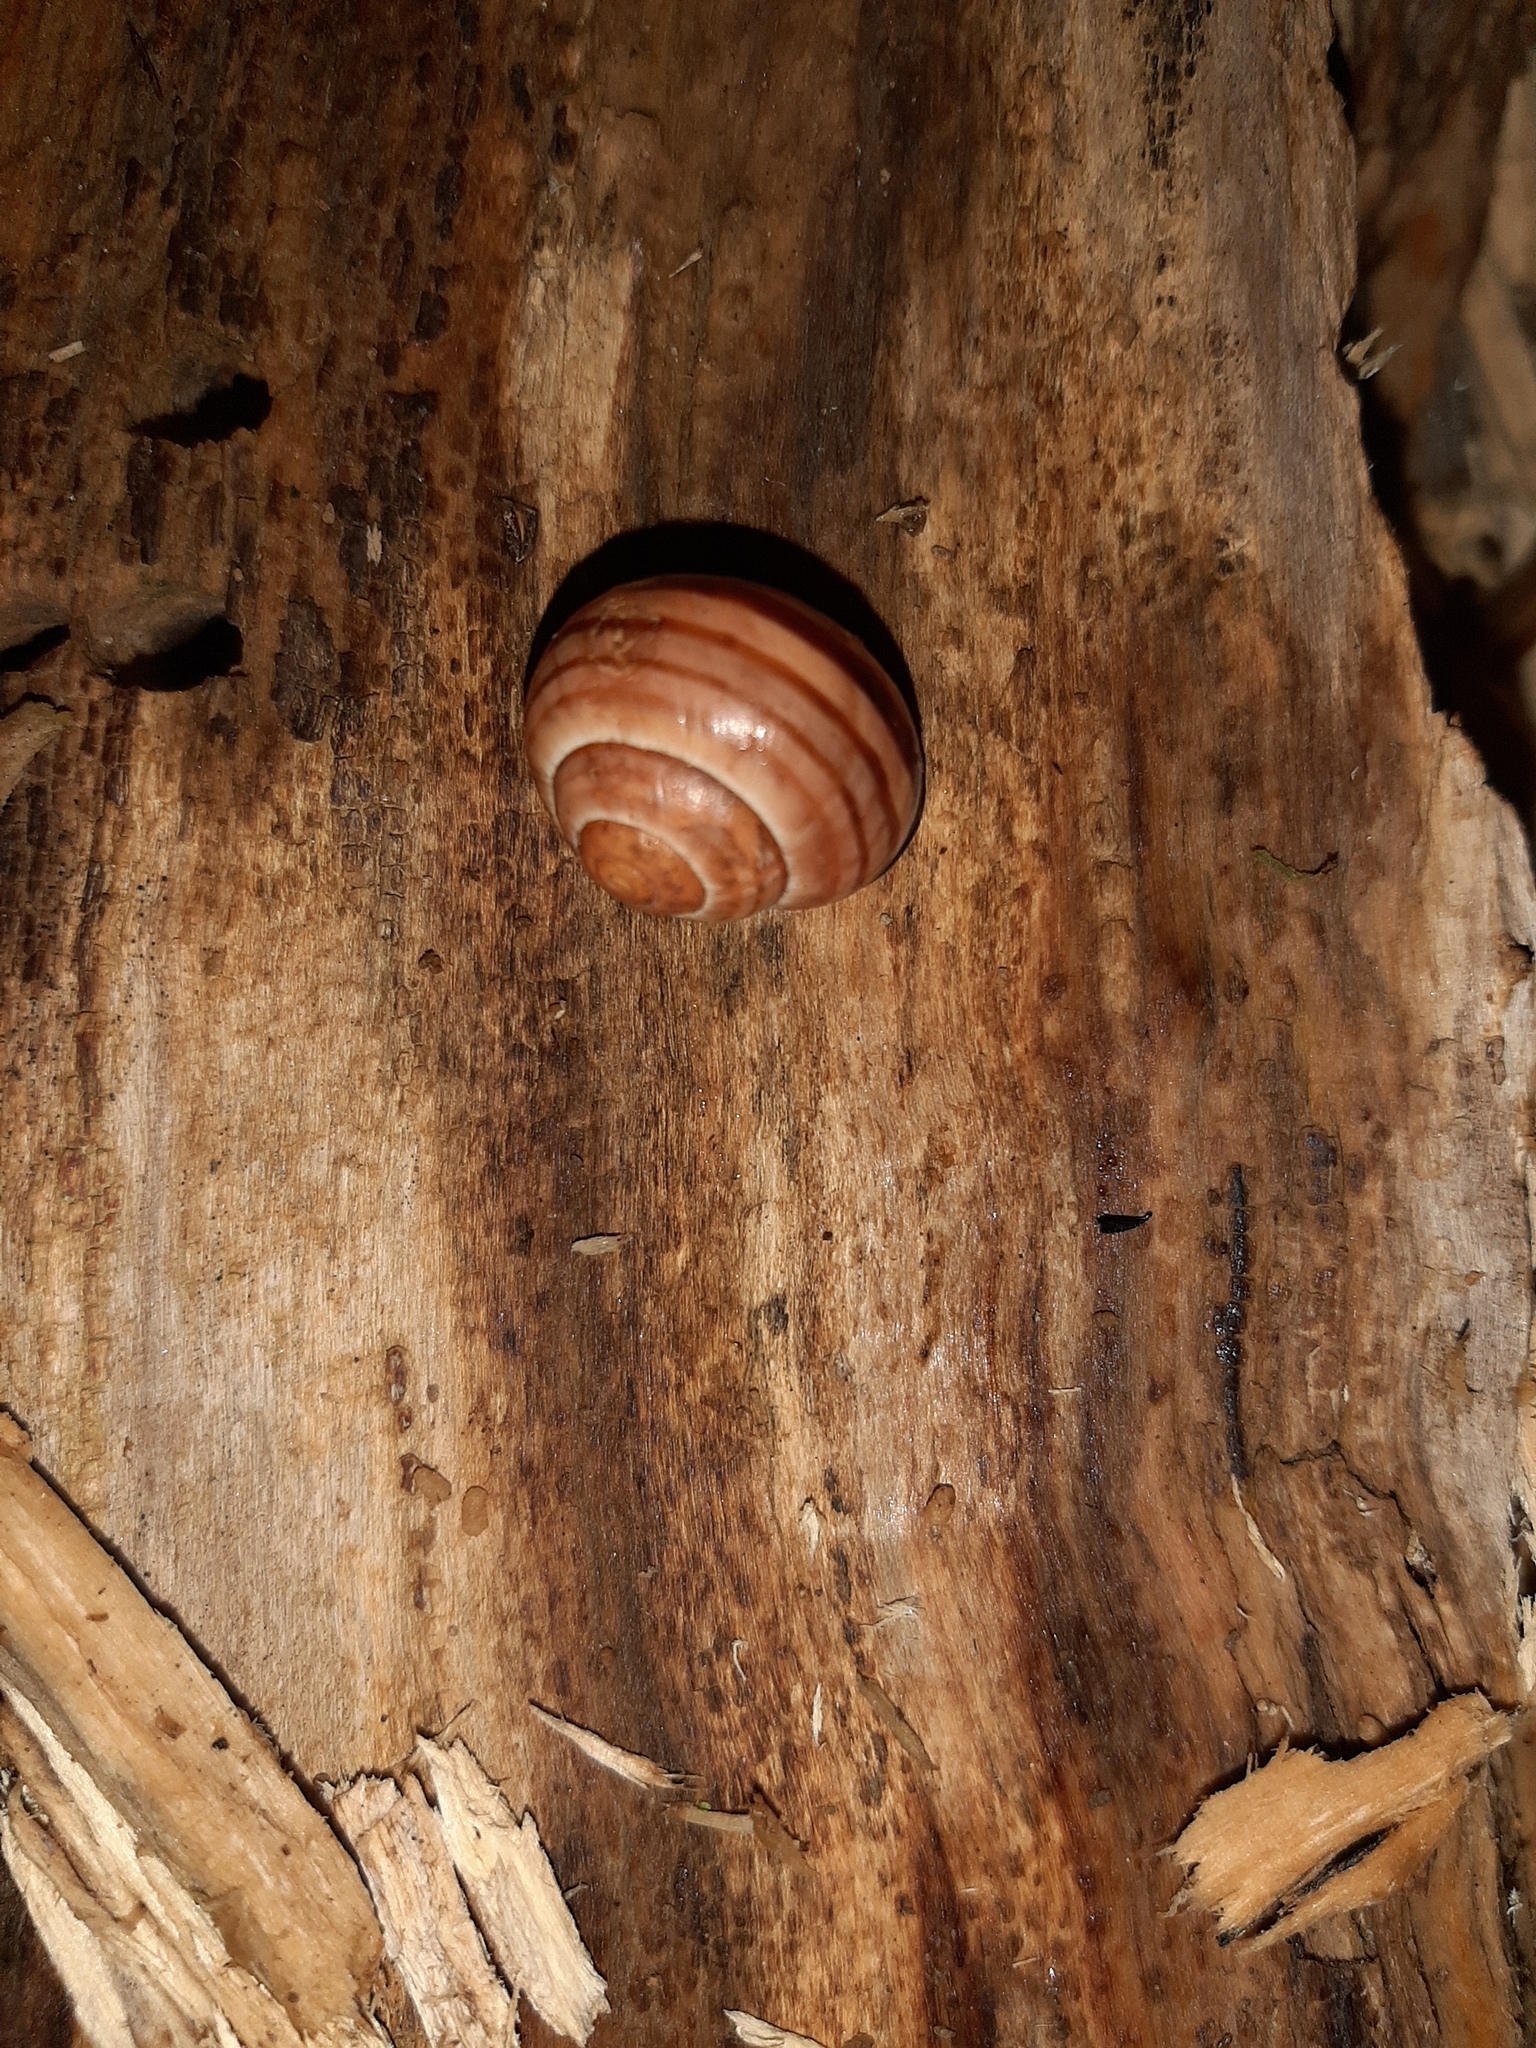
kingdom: Animalia
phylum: Mollusca
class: Gastropoda
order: Stylommatophora
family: Helicidae
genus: Cepaea
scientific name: Cepaea nemoralis
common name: Grovesnail
